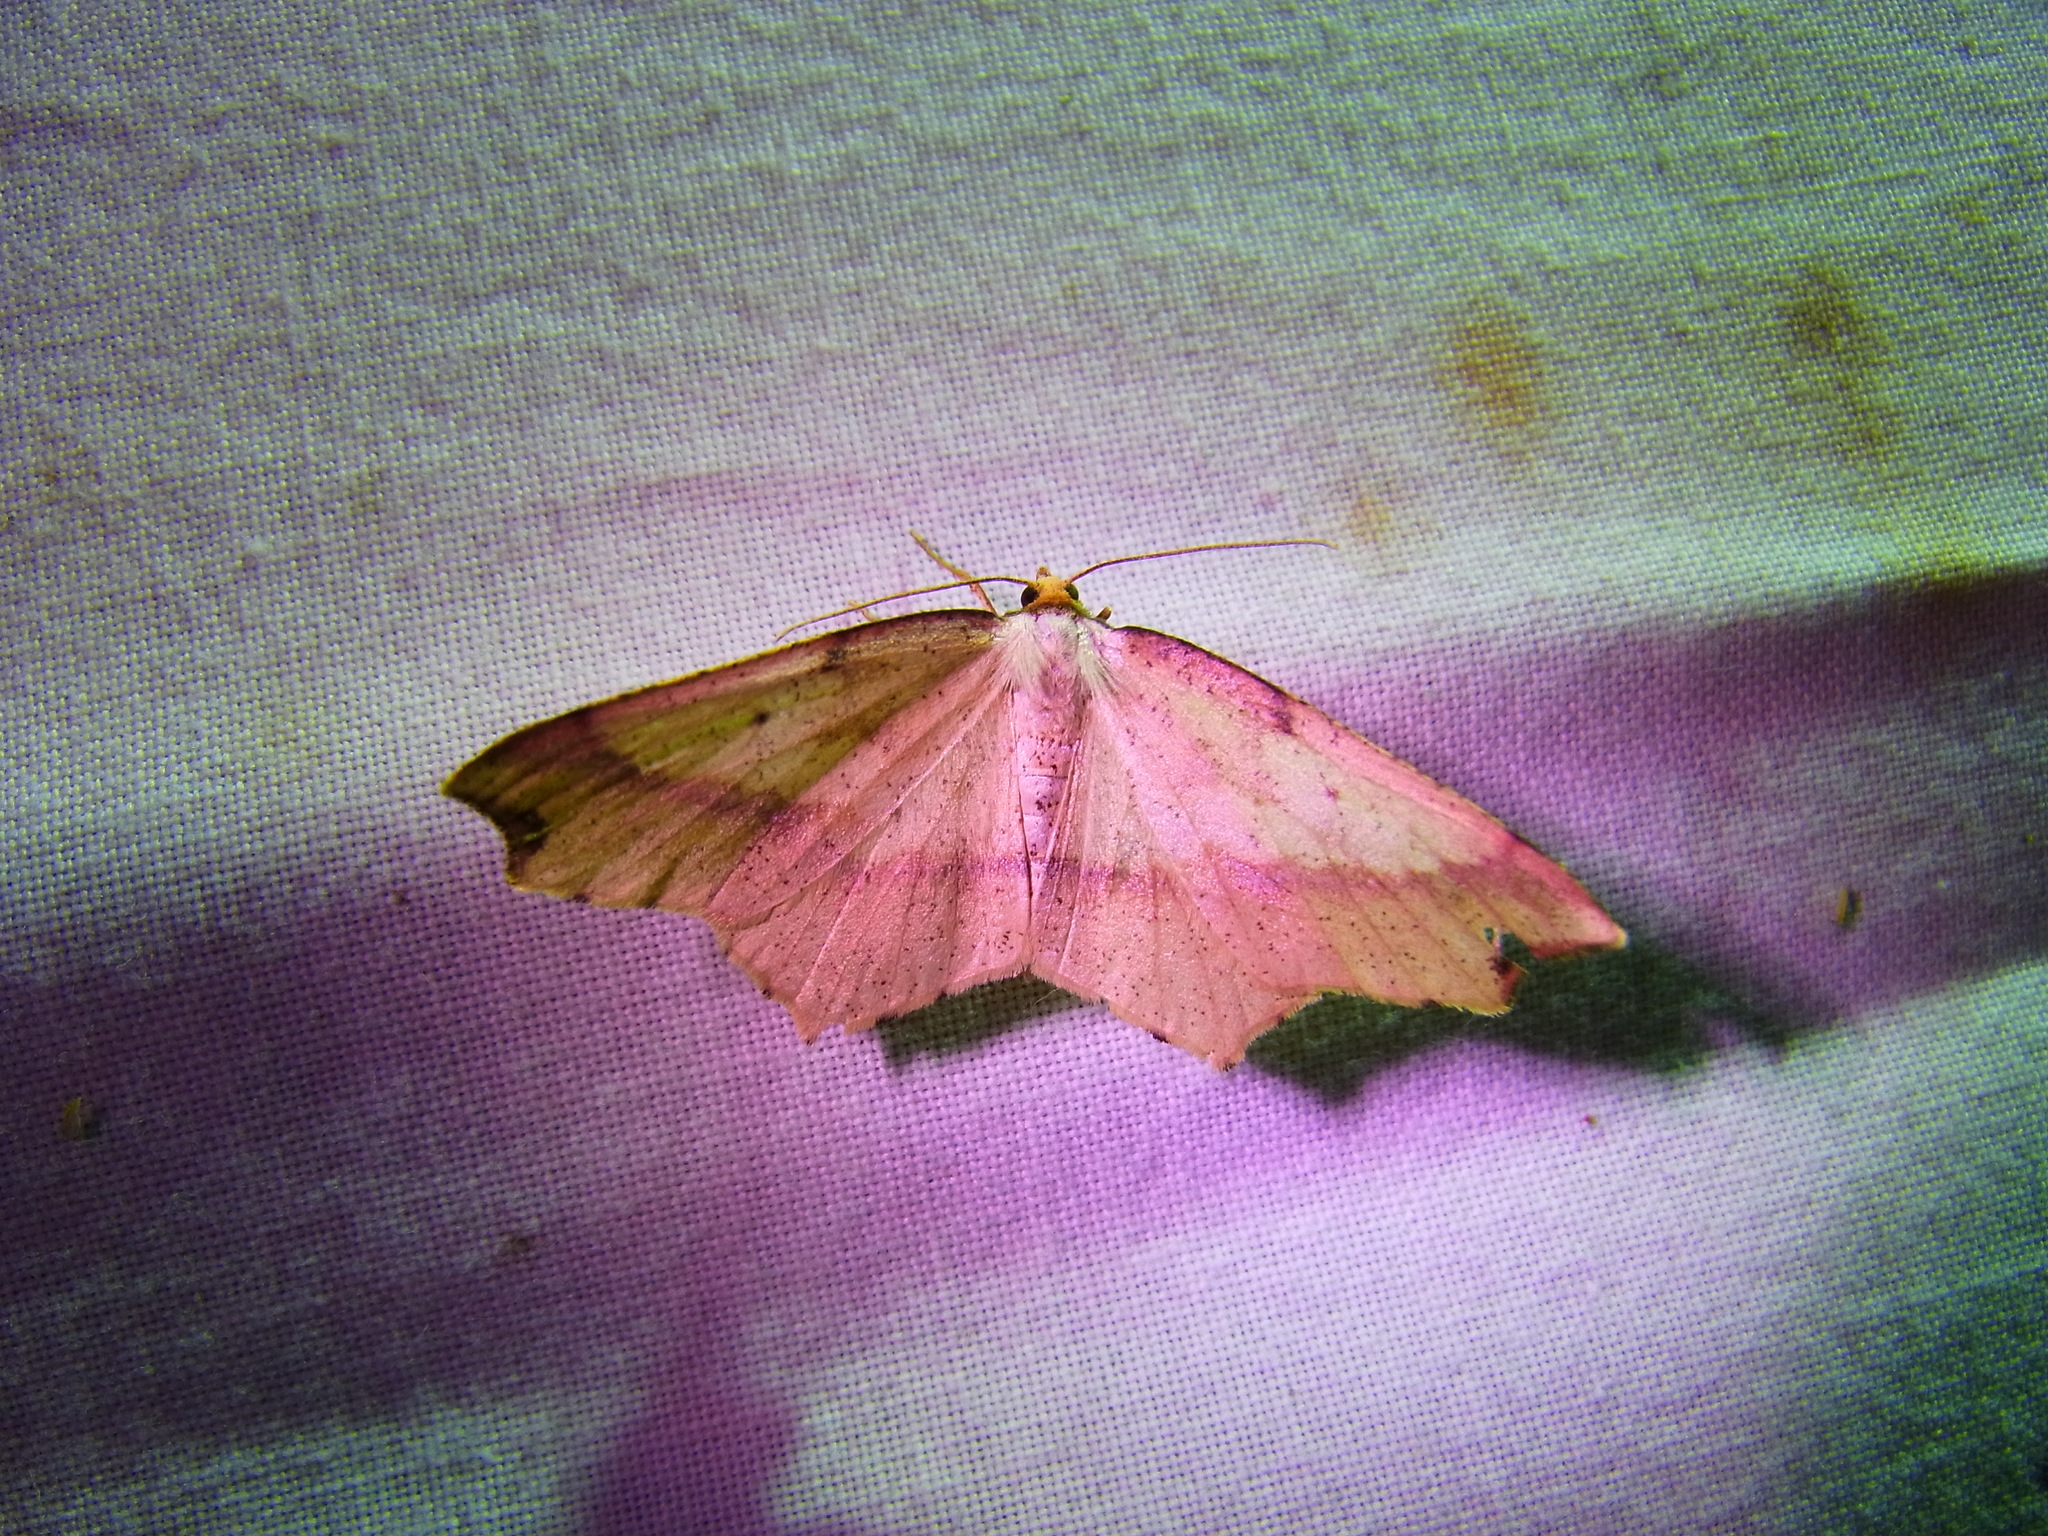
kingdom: Animalia
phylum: Arthropoda
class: Insecta
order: Lepidoptera
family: Geometridae
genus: Pareclipsis
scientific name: Pareclipsis gracilis
